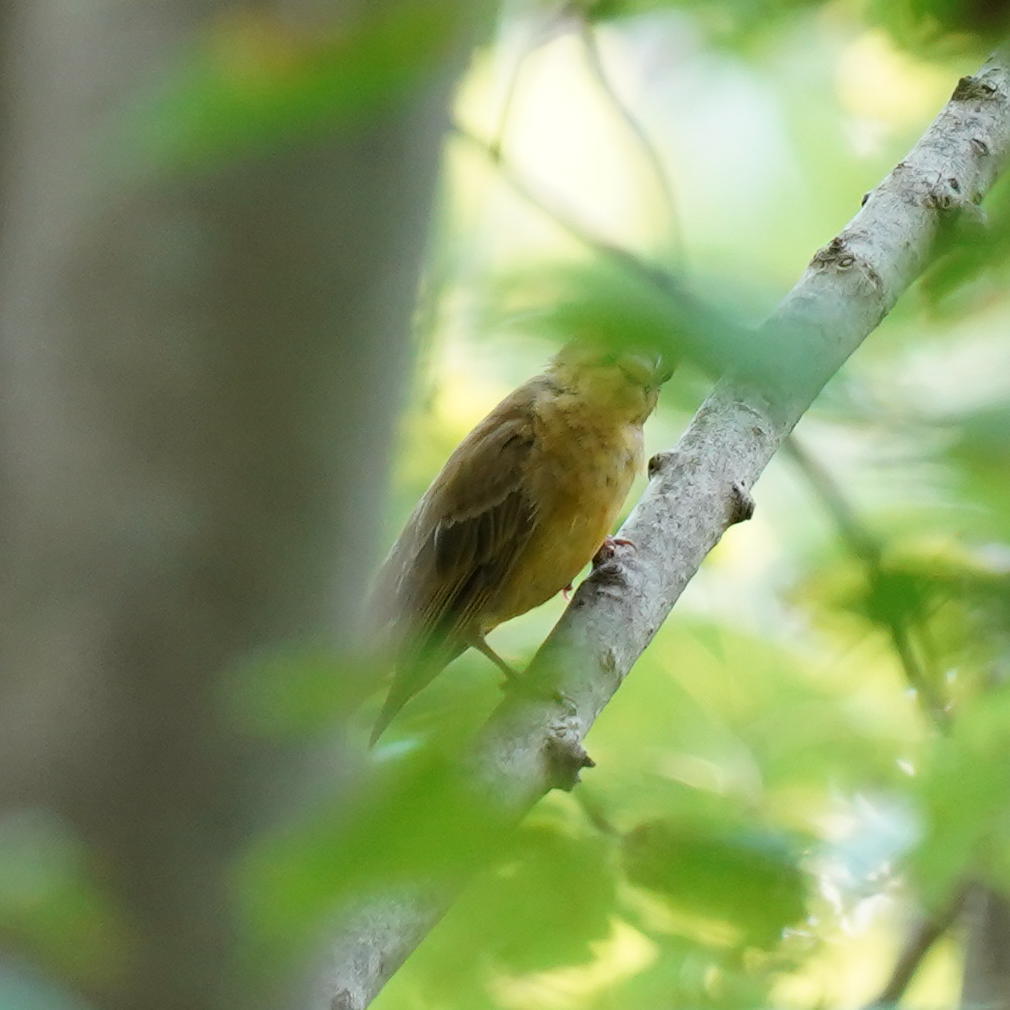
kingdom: Animalia
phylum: Chordata
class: Aves
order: Passeriformes
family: Cardinalidae
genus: Piranga
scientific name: Piranga rubra
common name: Summer tanager
